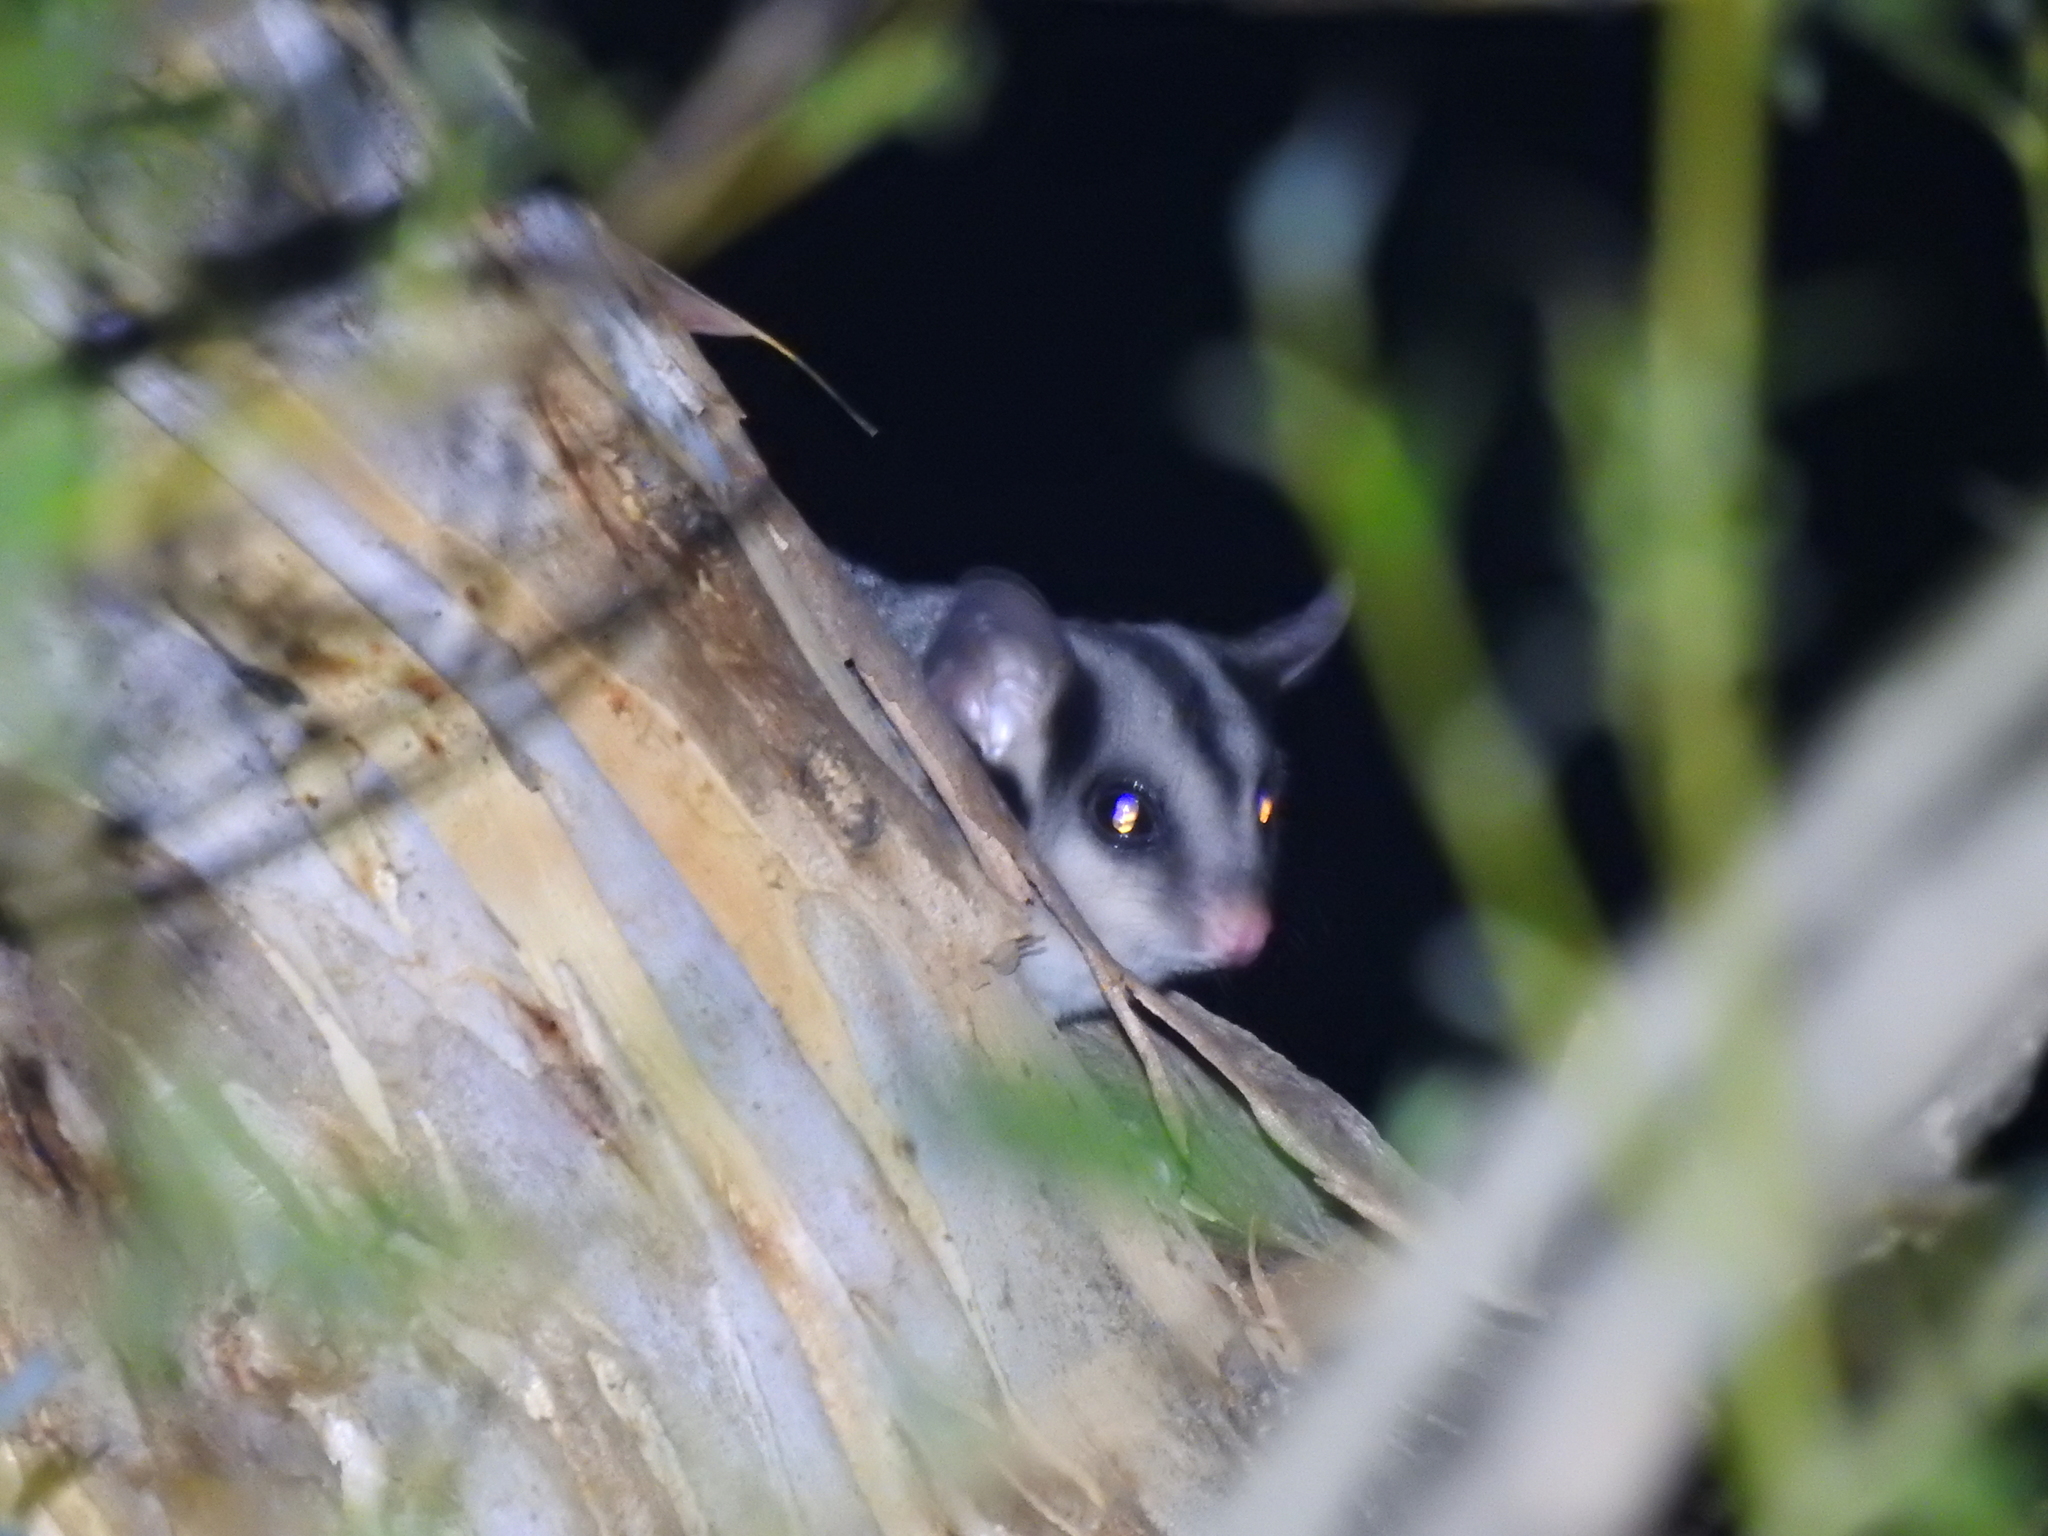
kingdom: Animalia
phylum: Chordata
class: Mammalia
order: Diprotodontia
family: Petauridae
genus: Petaurus
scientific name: Petaurus norfolcensis
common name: Squirrel glider
